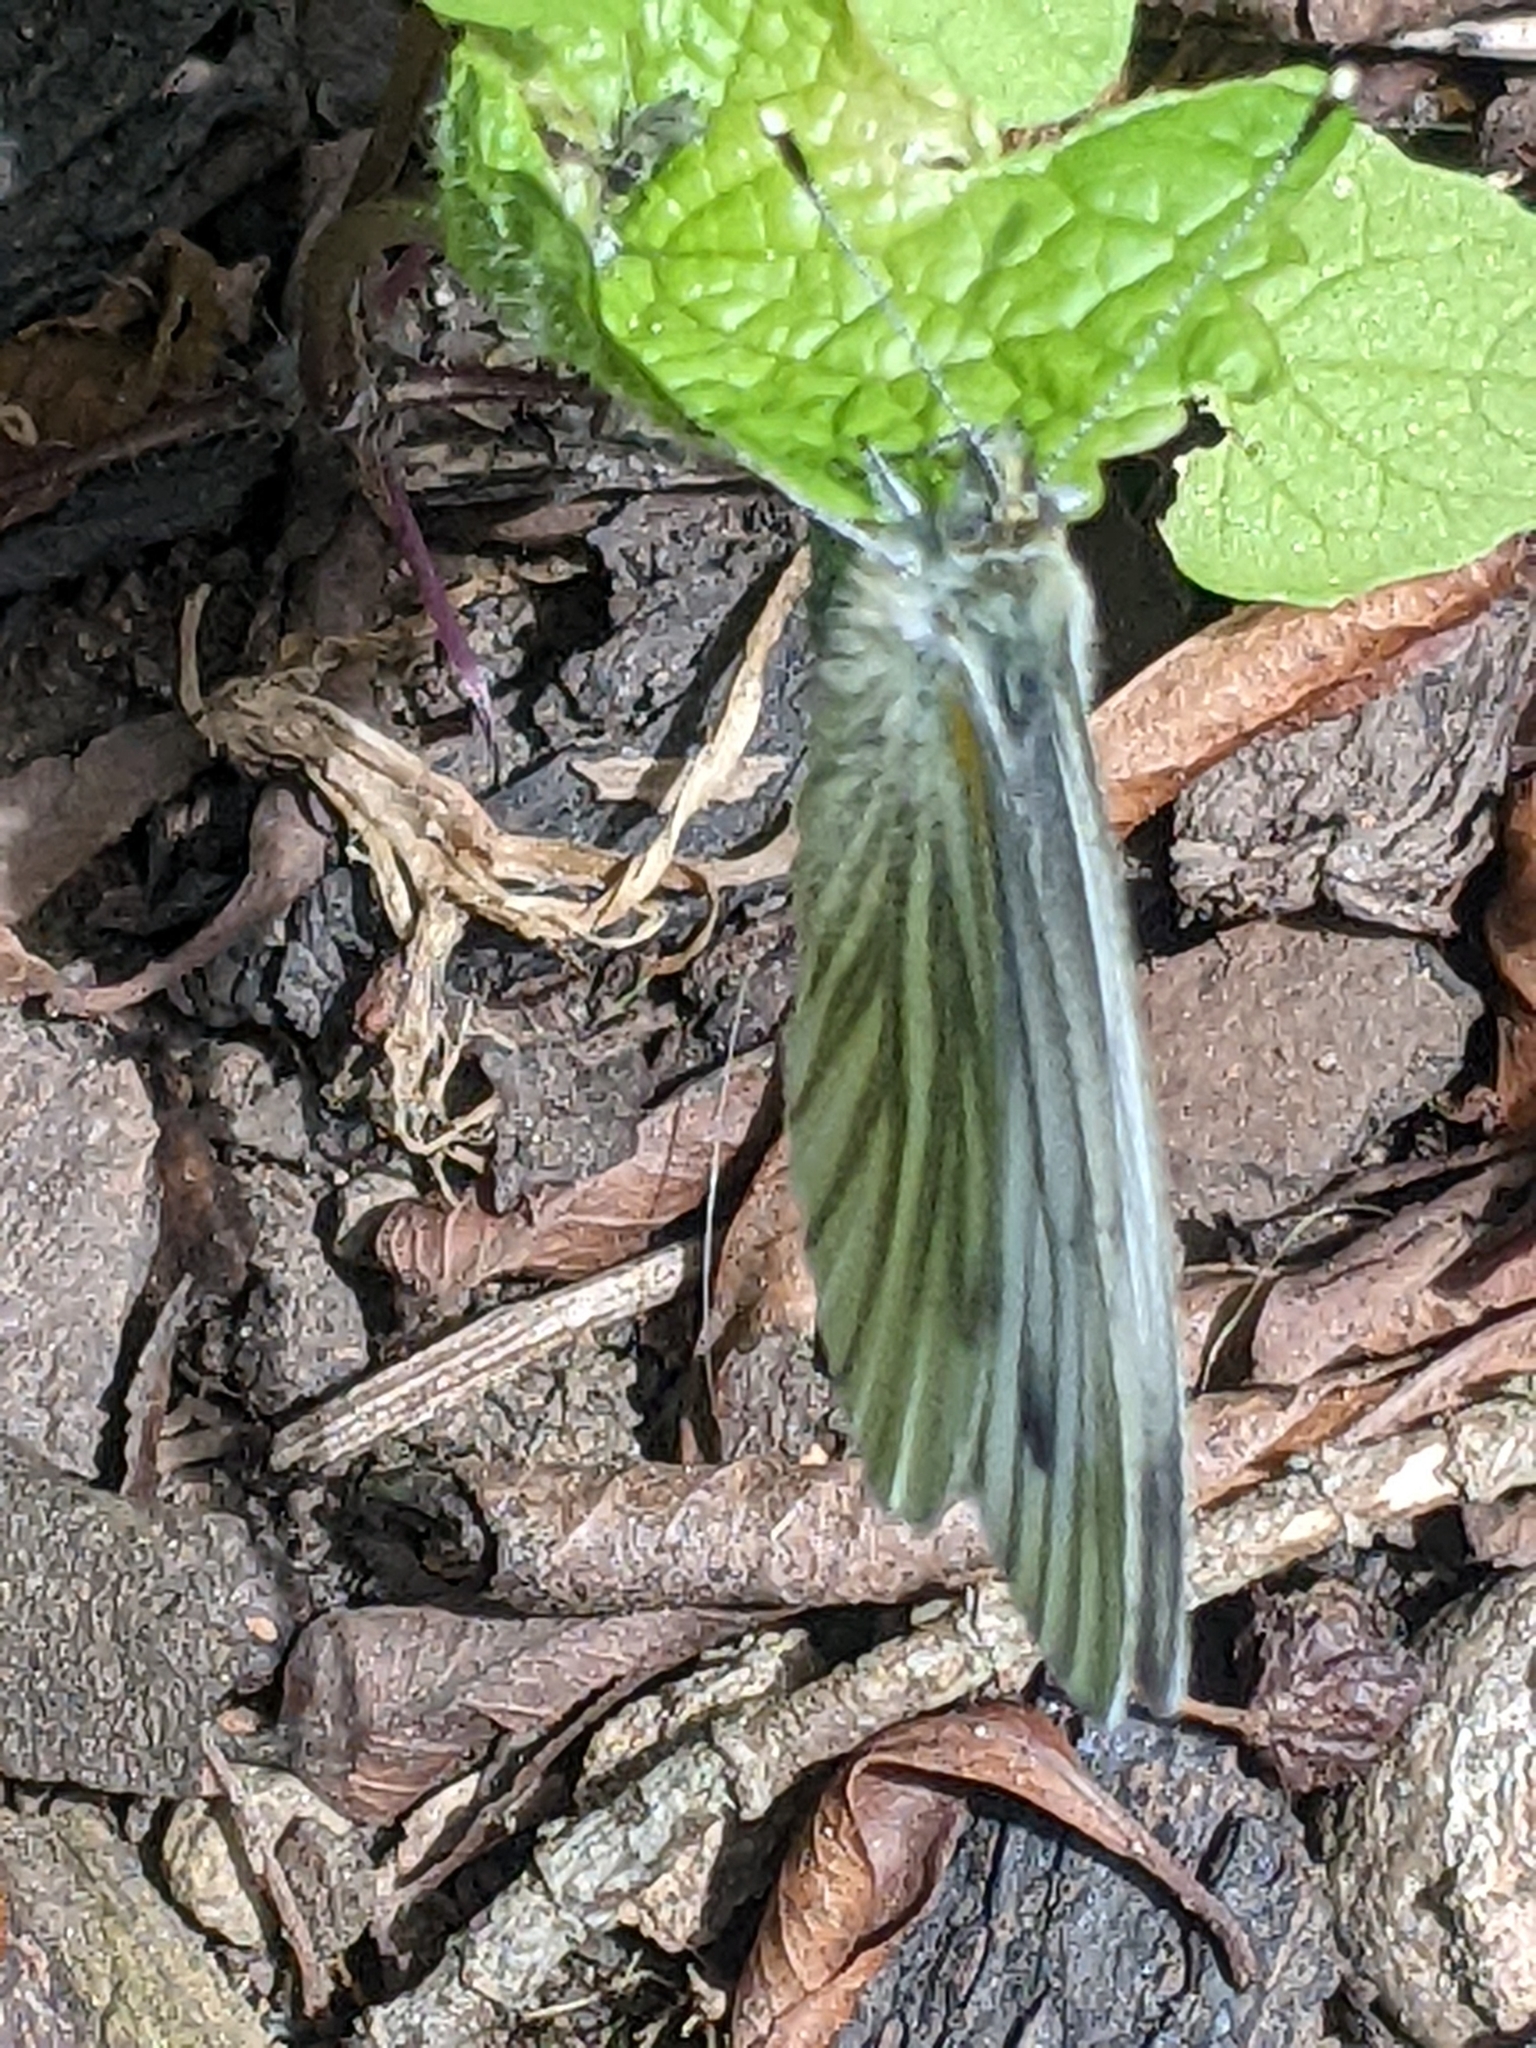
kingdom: Animalia
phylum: Arthropoda
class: Insecta
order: Lepidoptera
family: Pieridae
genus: Pieris
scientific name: Pieris napi
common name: Green-veined white
